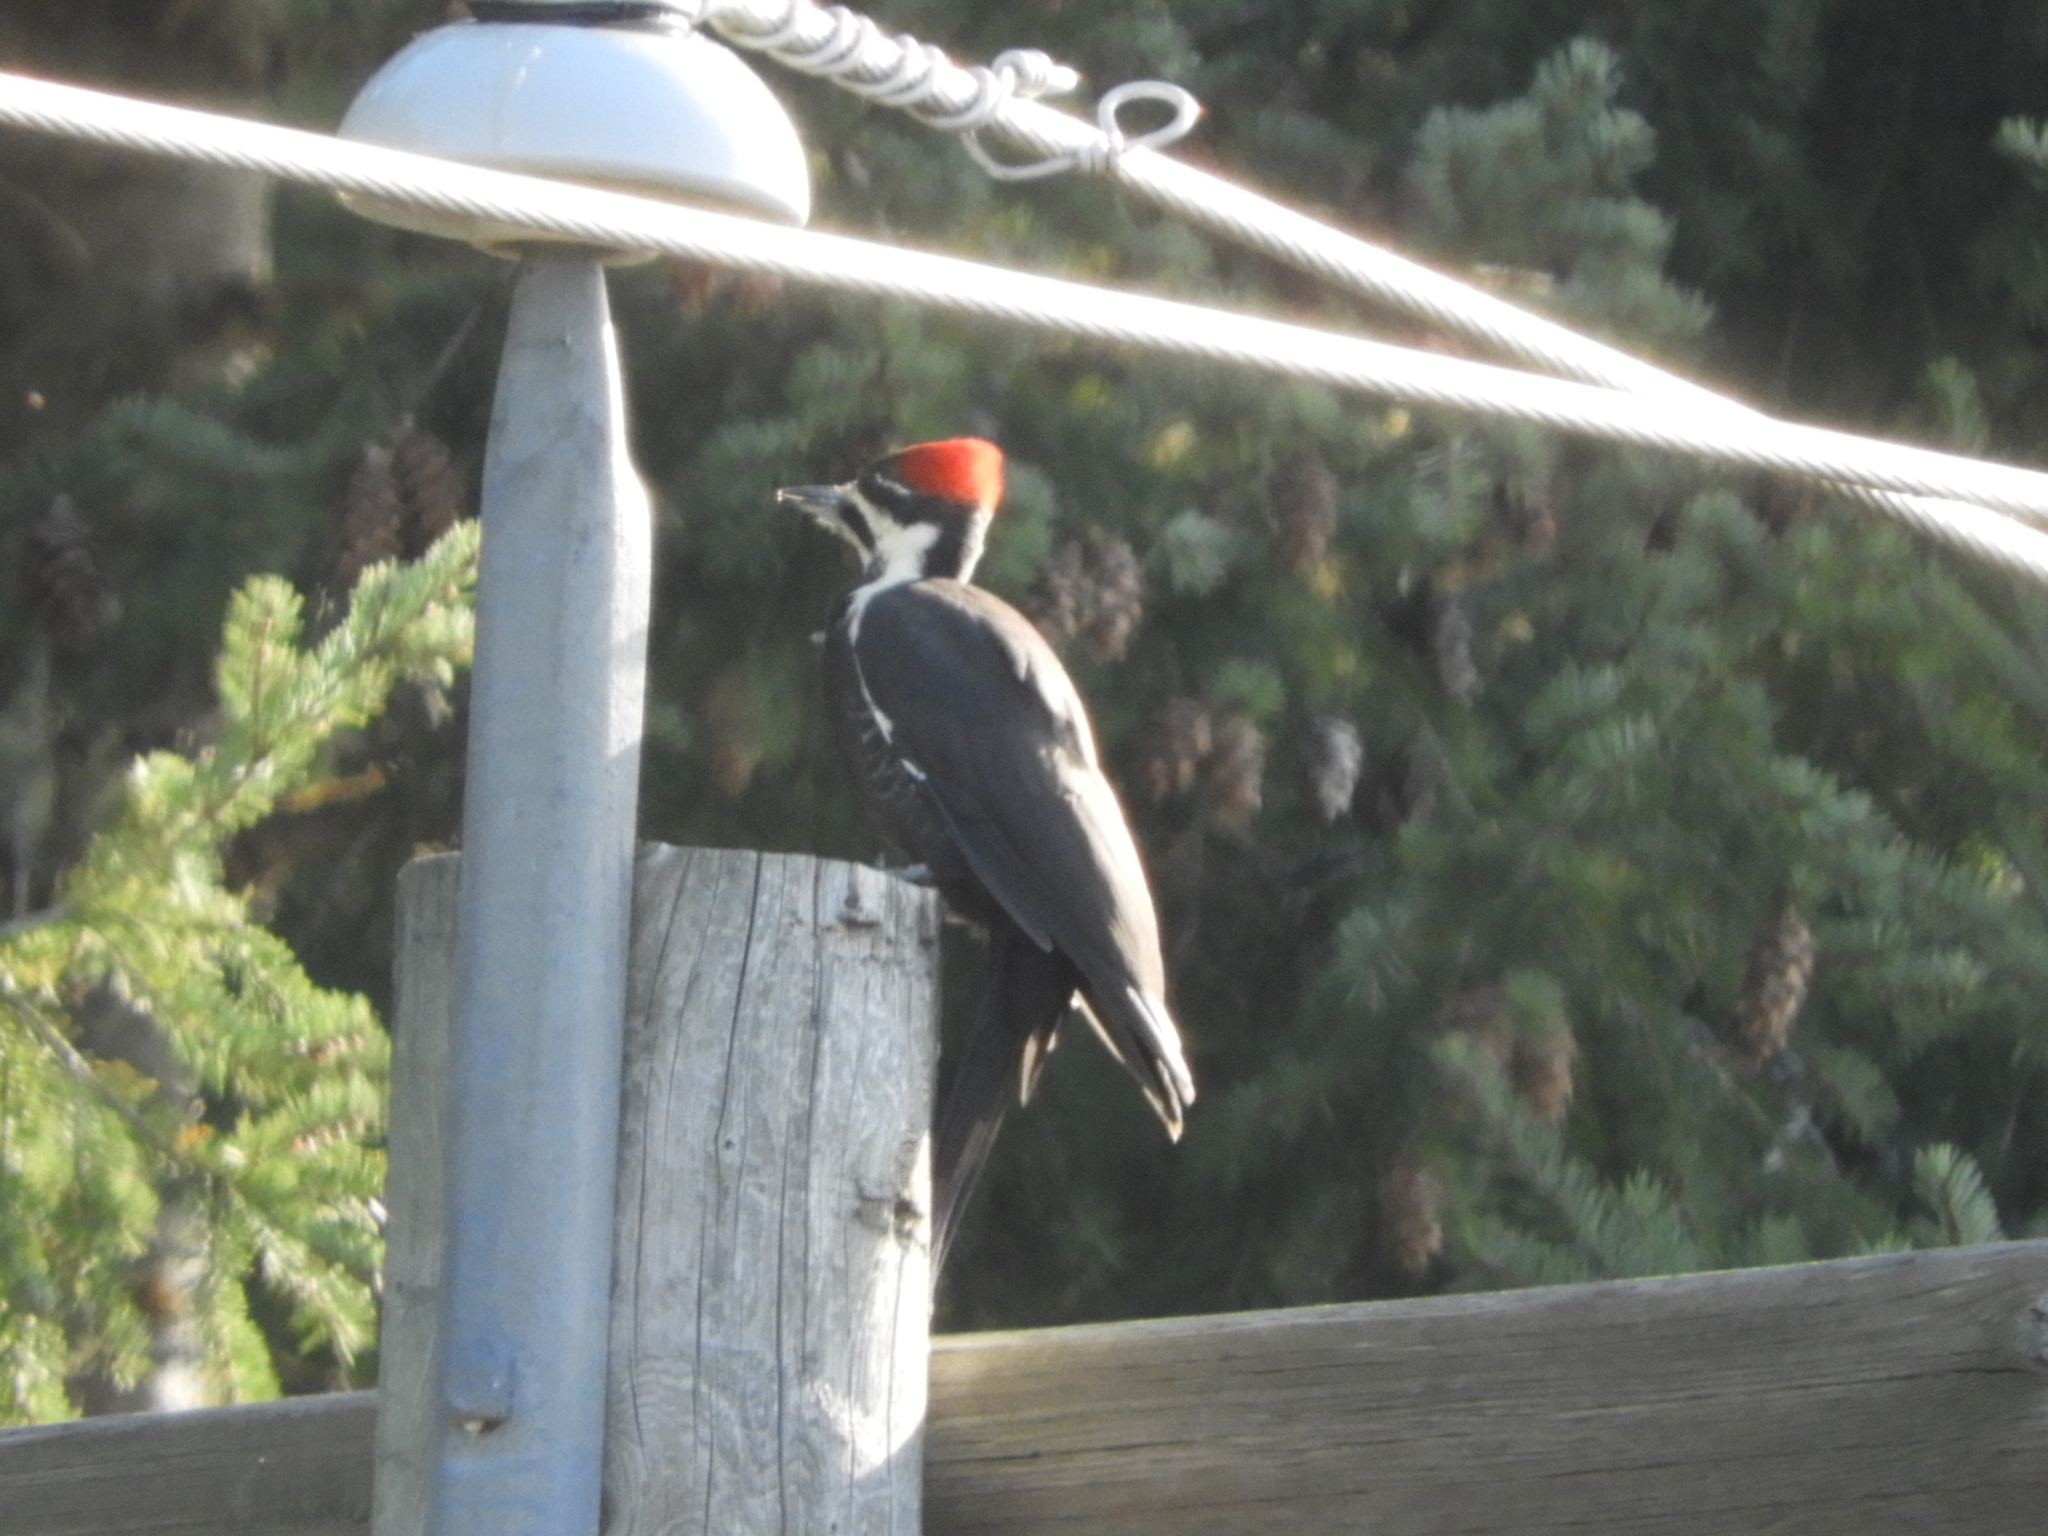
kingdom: Animalia
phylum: Chordata
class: Aves
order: Piciformes
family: Picidae
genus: Dryocopus
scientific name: Dryocopus pileatus
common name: Pileated woodpecker
